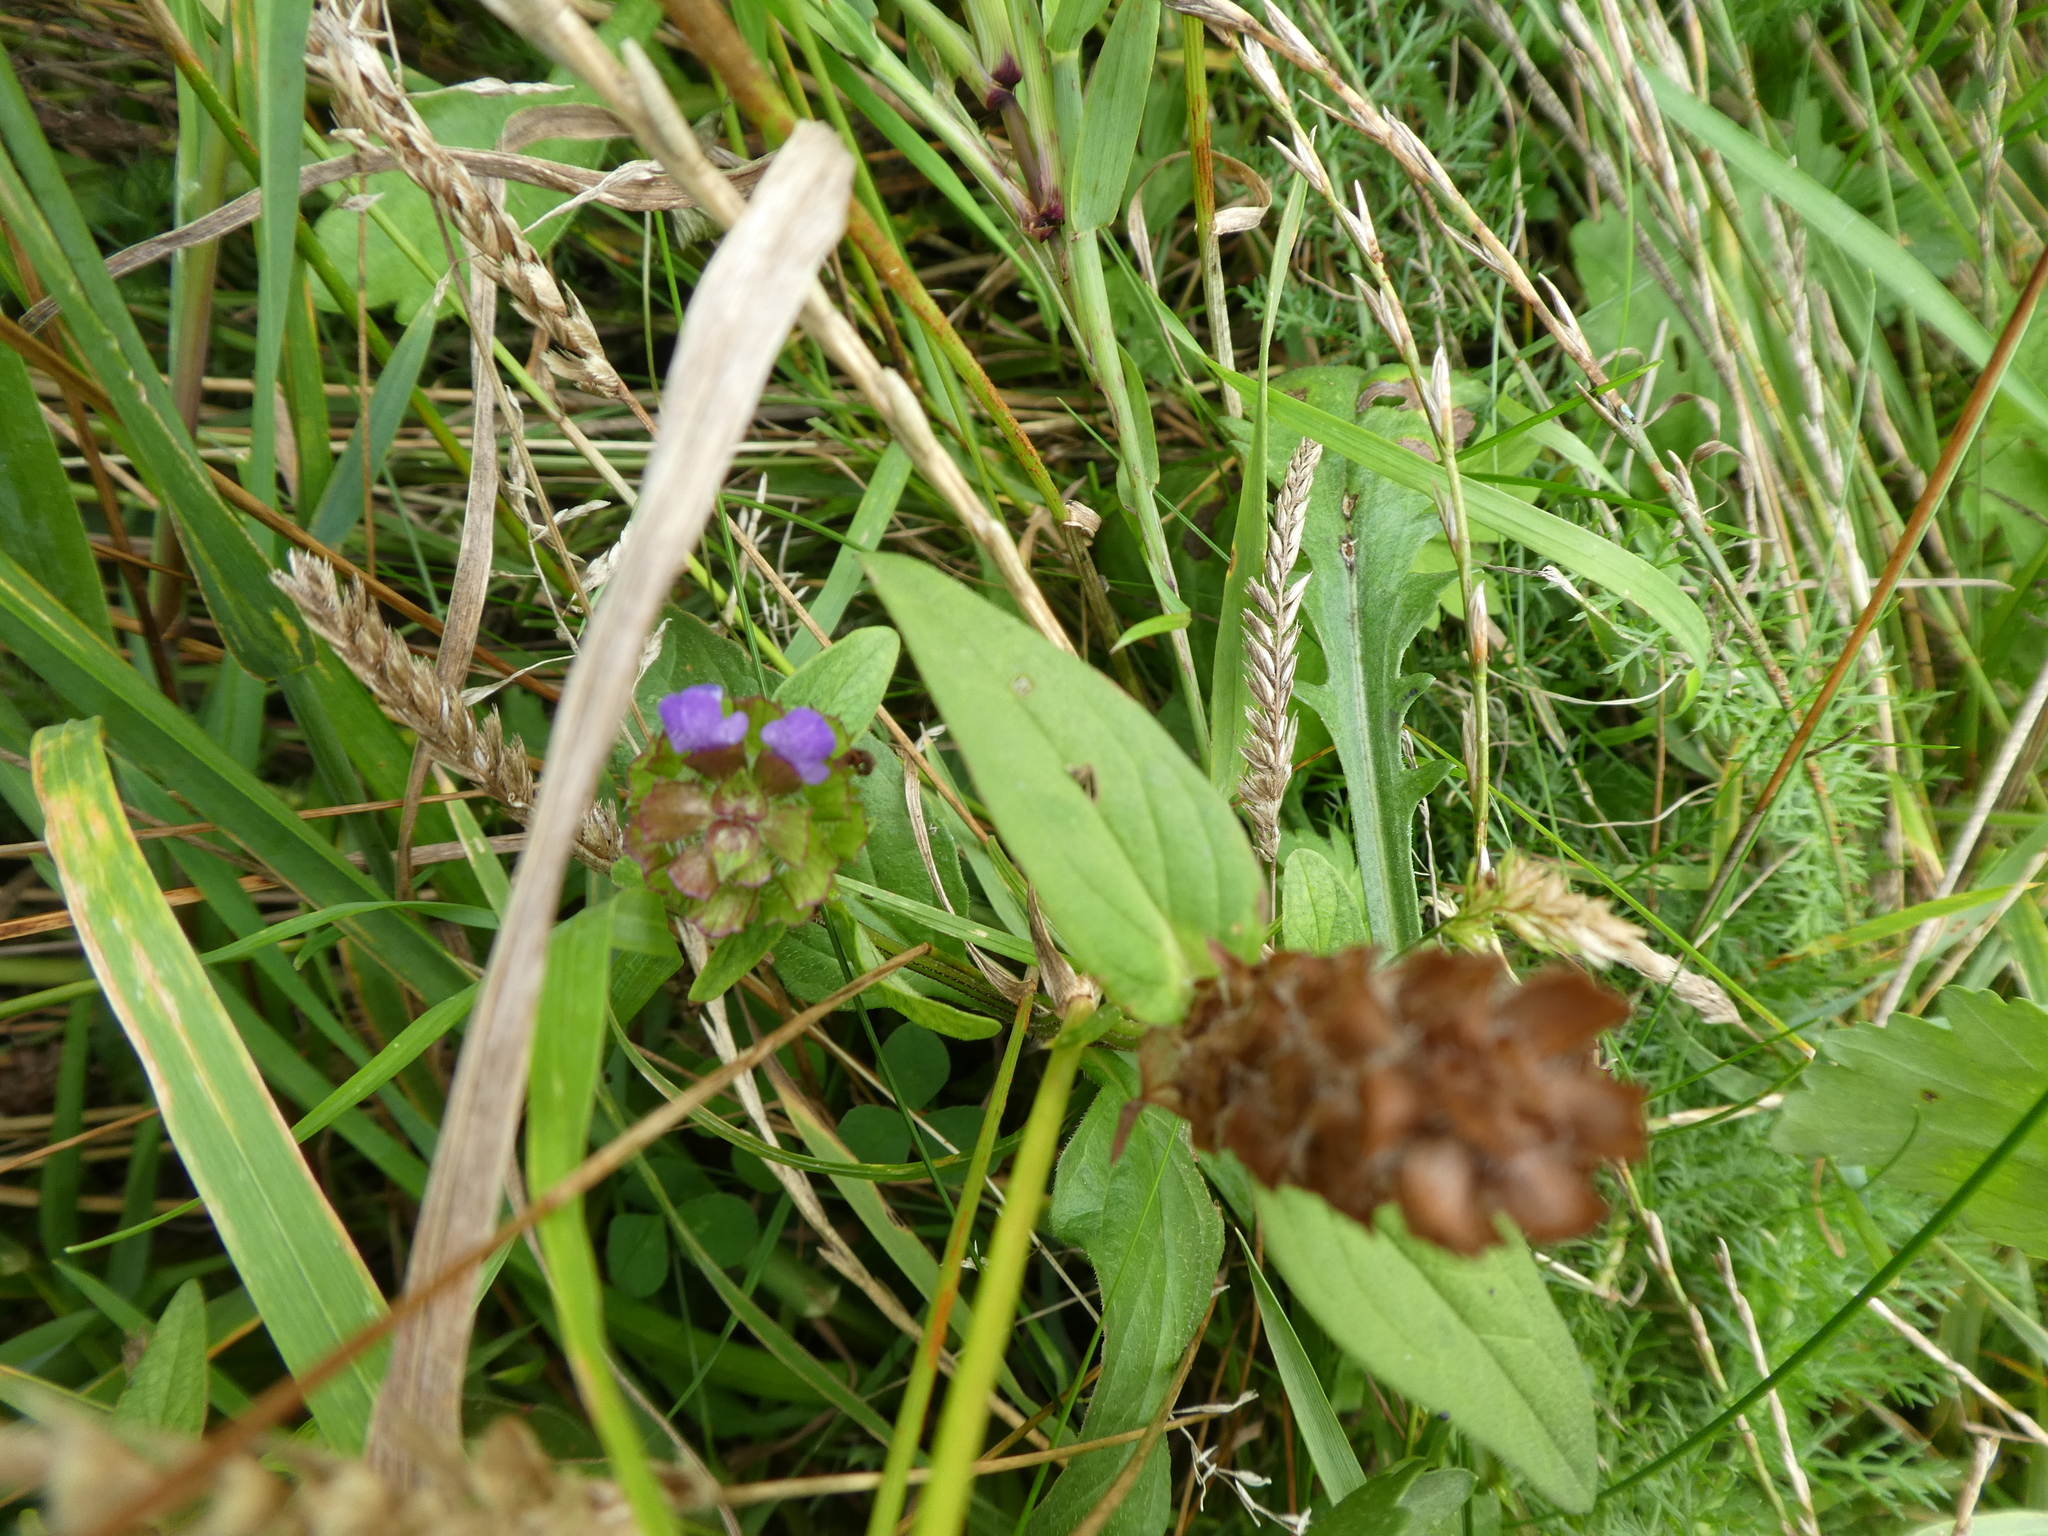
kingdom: Plantae
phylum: Tracheophyta
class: Magnoliopsida
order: Lamiales
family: Lamiaceae
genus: Prunella
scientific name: Prunella vulgaris
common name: Heal-all
